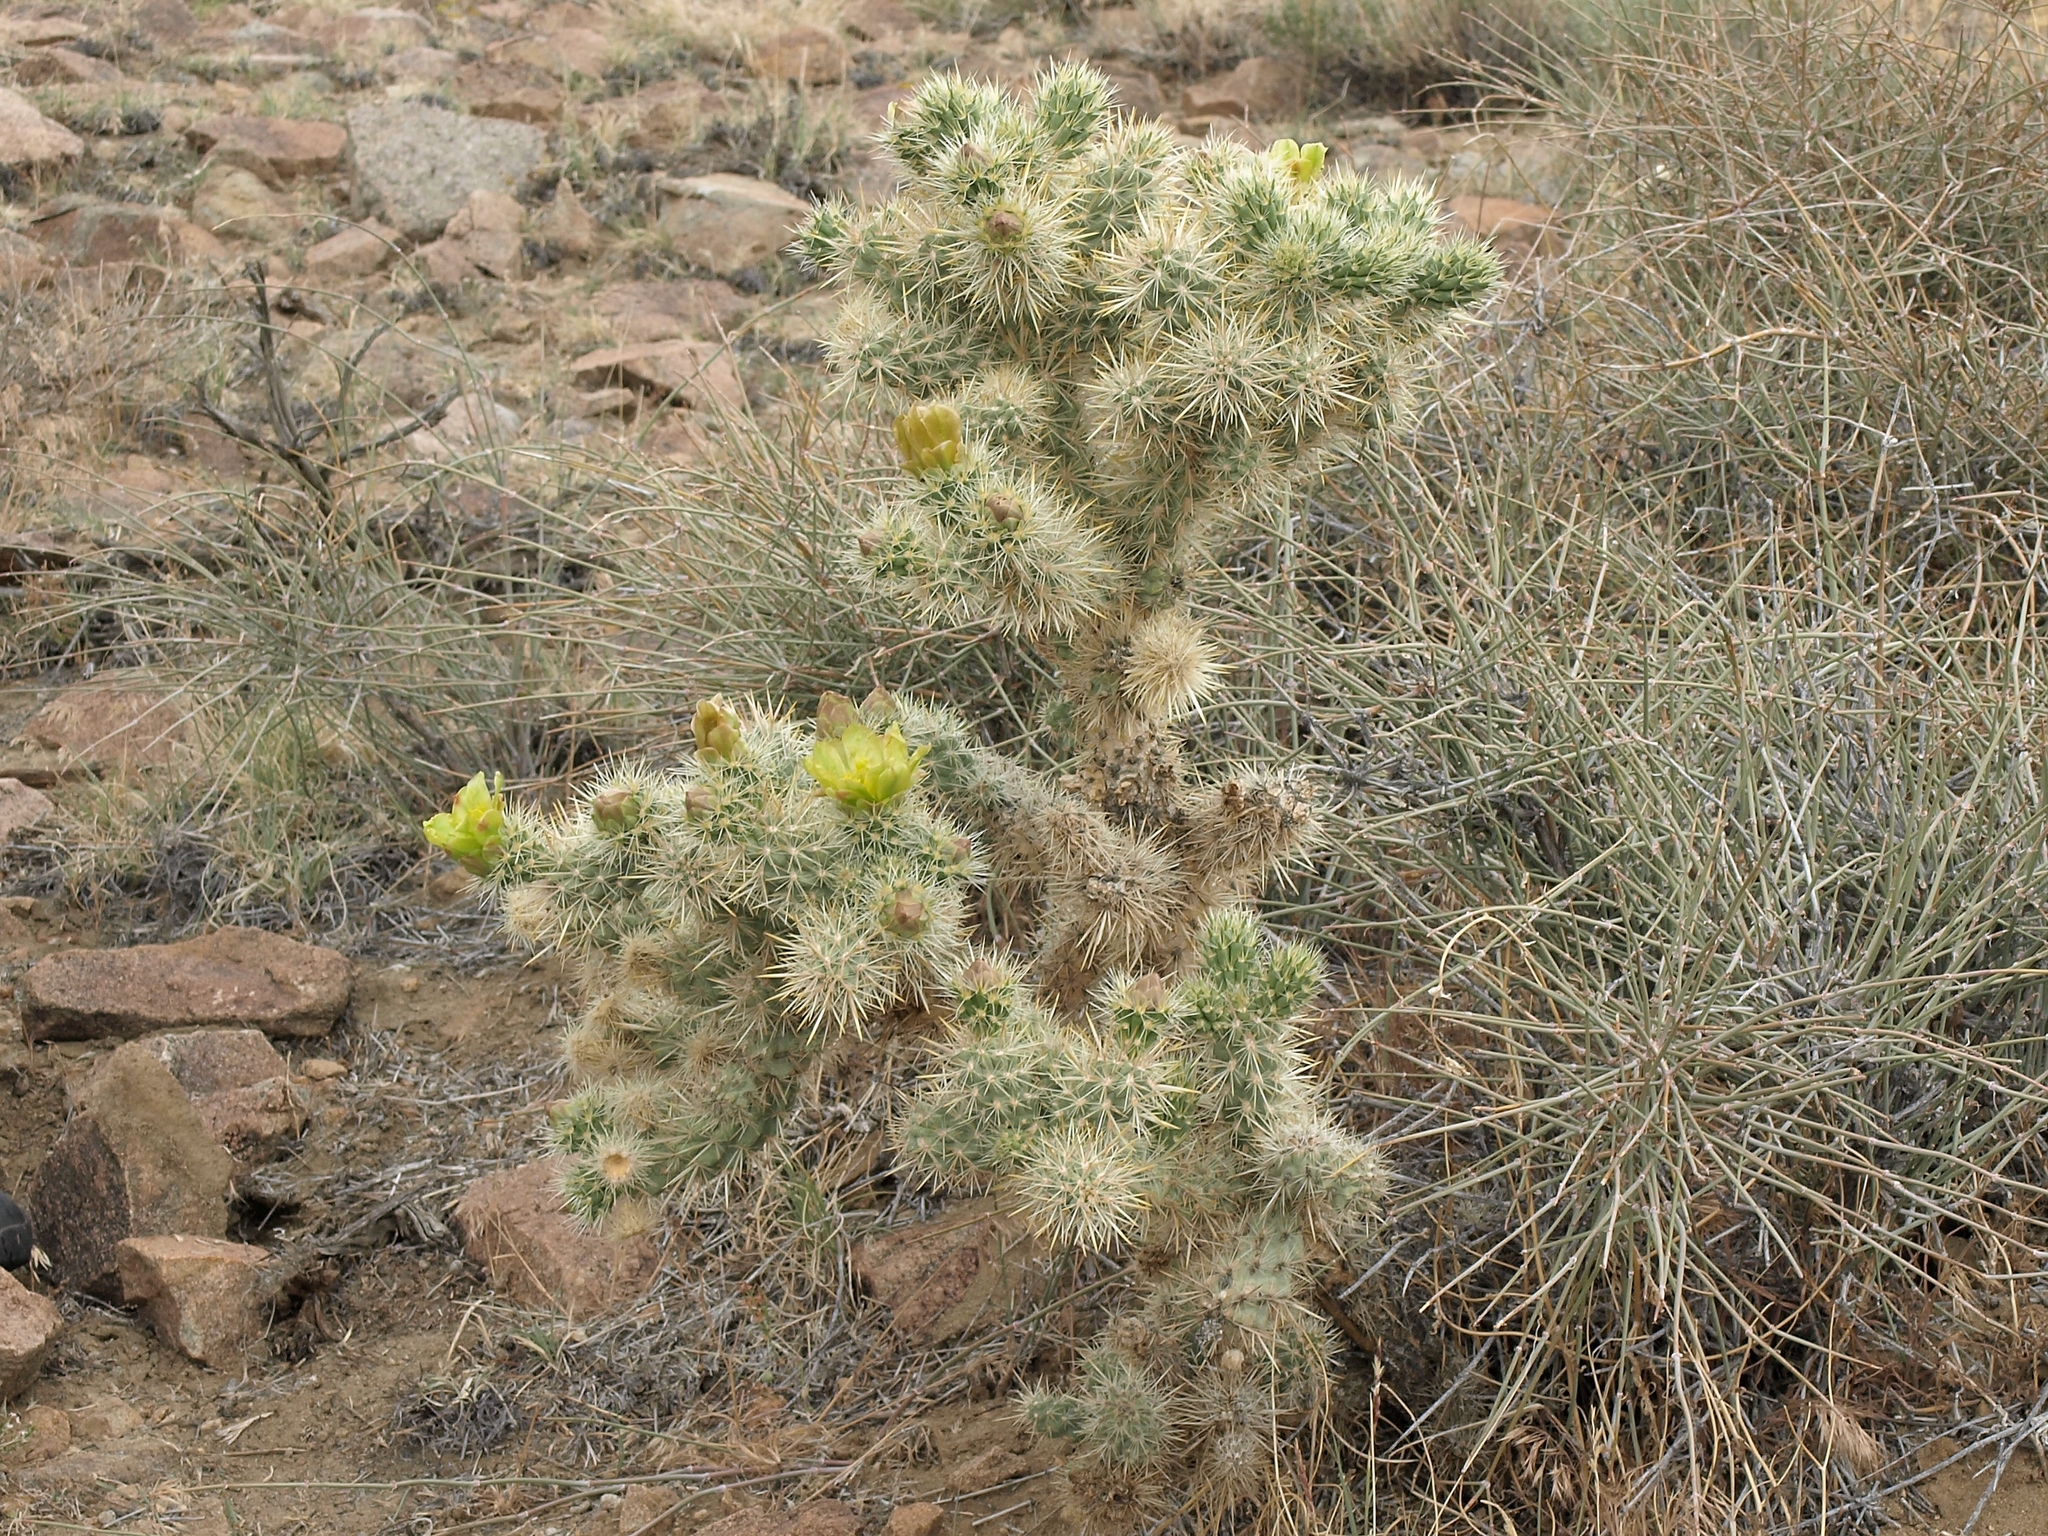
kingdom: Plantae
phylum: Tracheophyta
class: Magnoliopsida
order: Caryophyllales
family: Cactaceae
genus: Cylindropuntia
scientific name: Cylindropuntia echinocarpa
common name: Ground cholla
